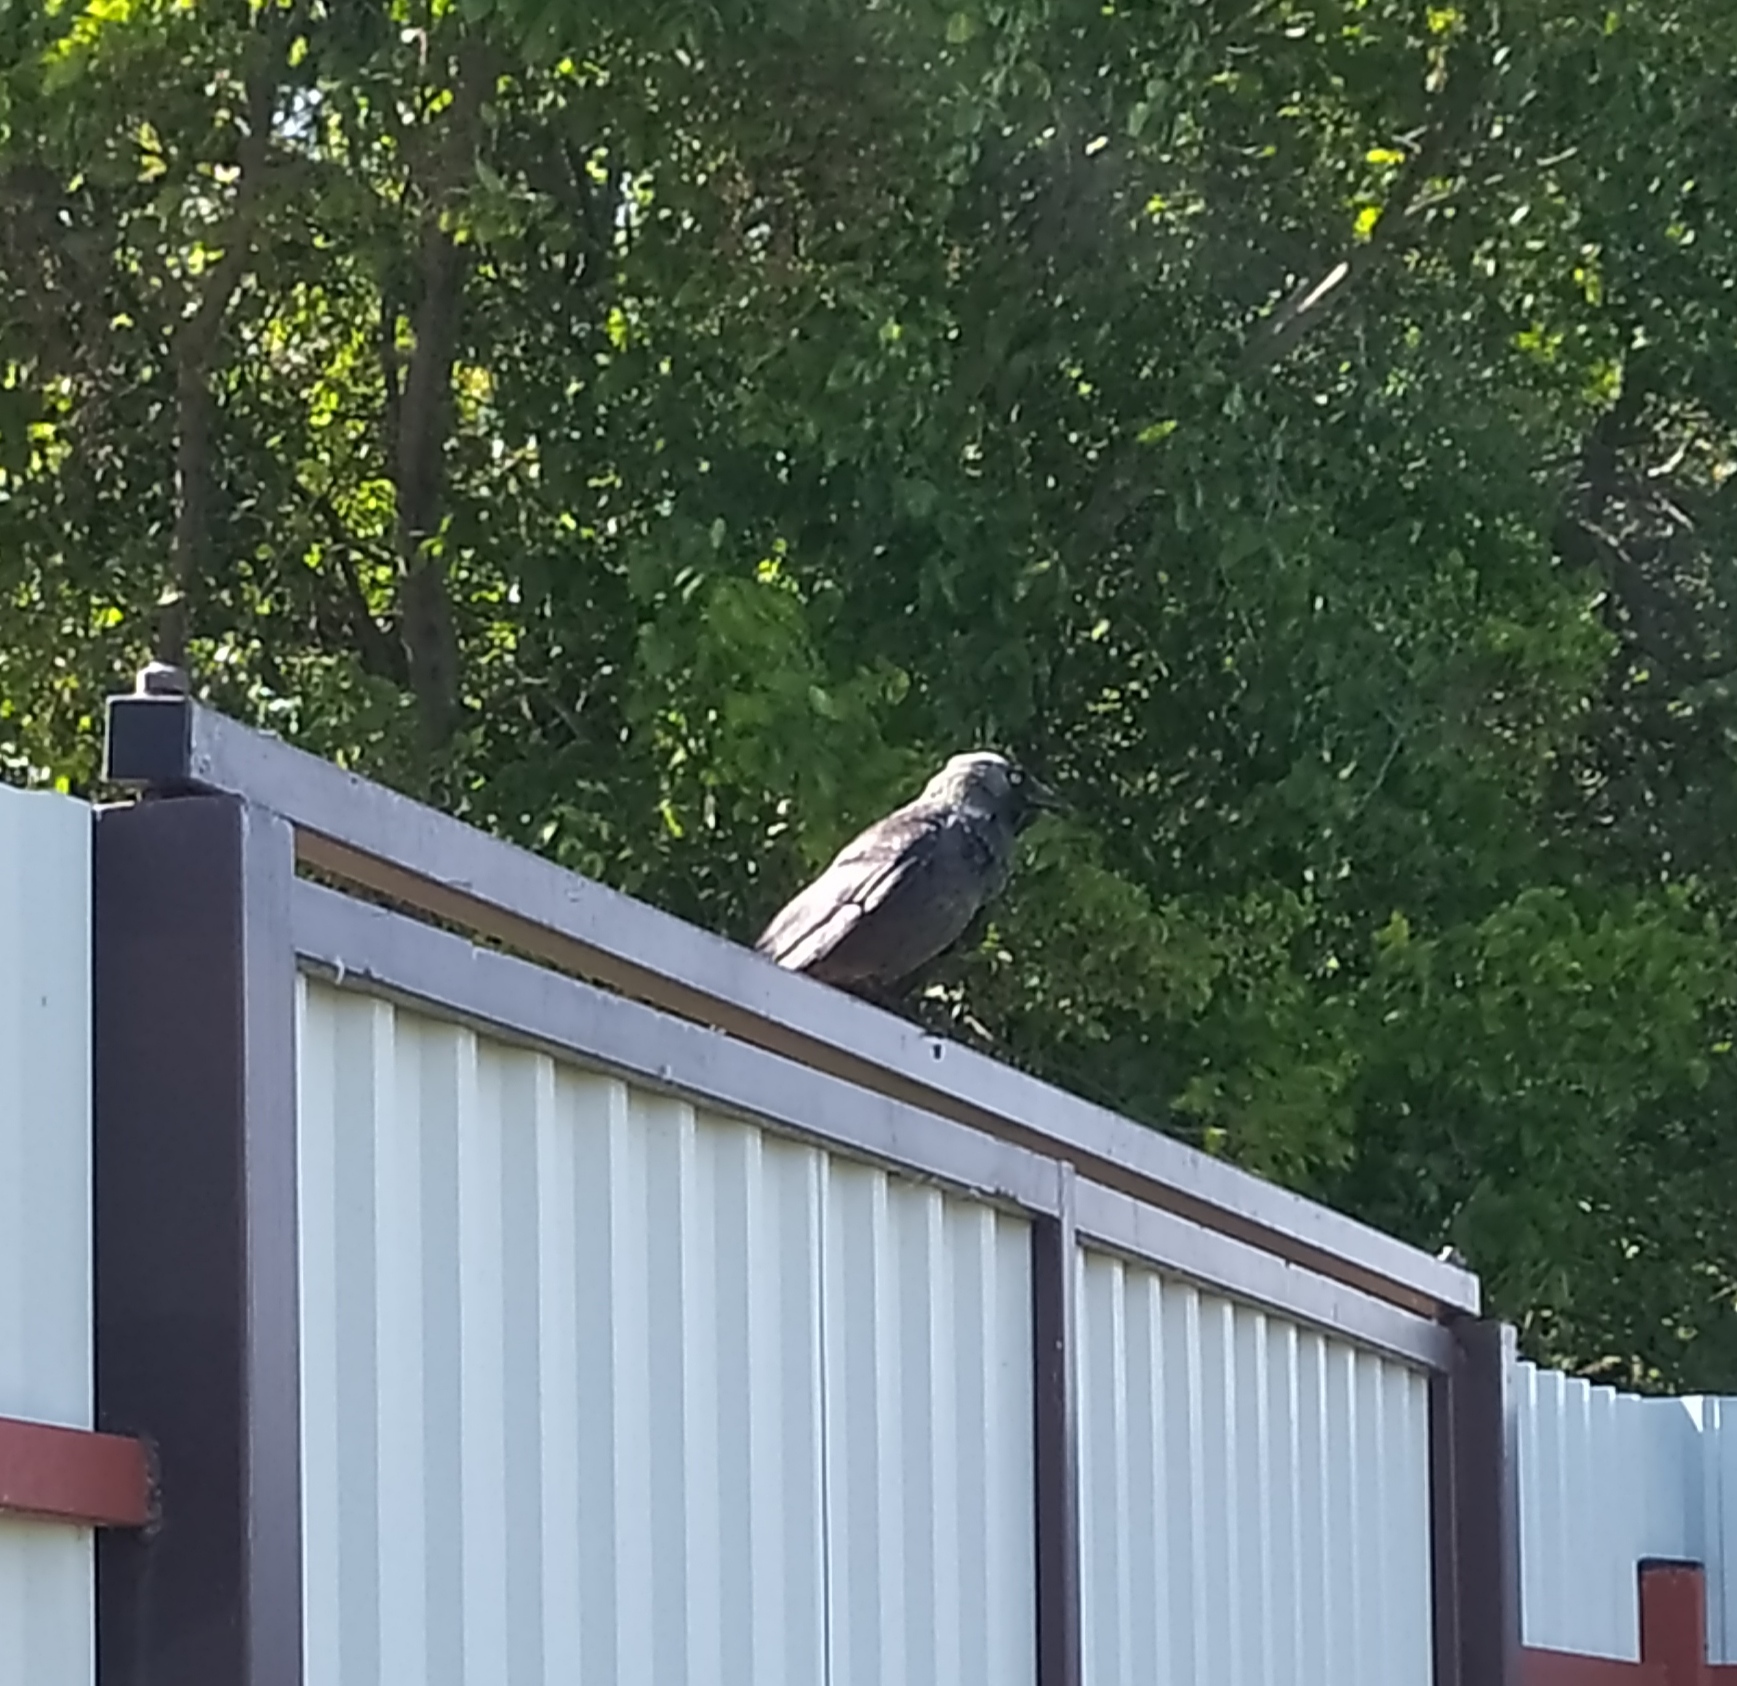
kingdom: Animalia
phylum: Chordata
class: Aves
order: Passeriformes
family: Corvidae
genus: Coloeus
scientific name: Coloeus monedula
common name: Western jackdaw
